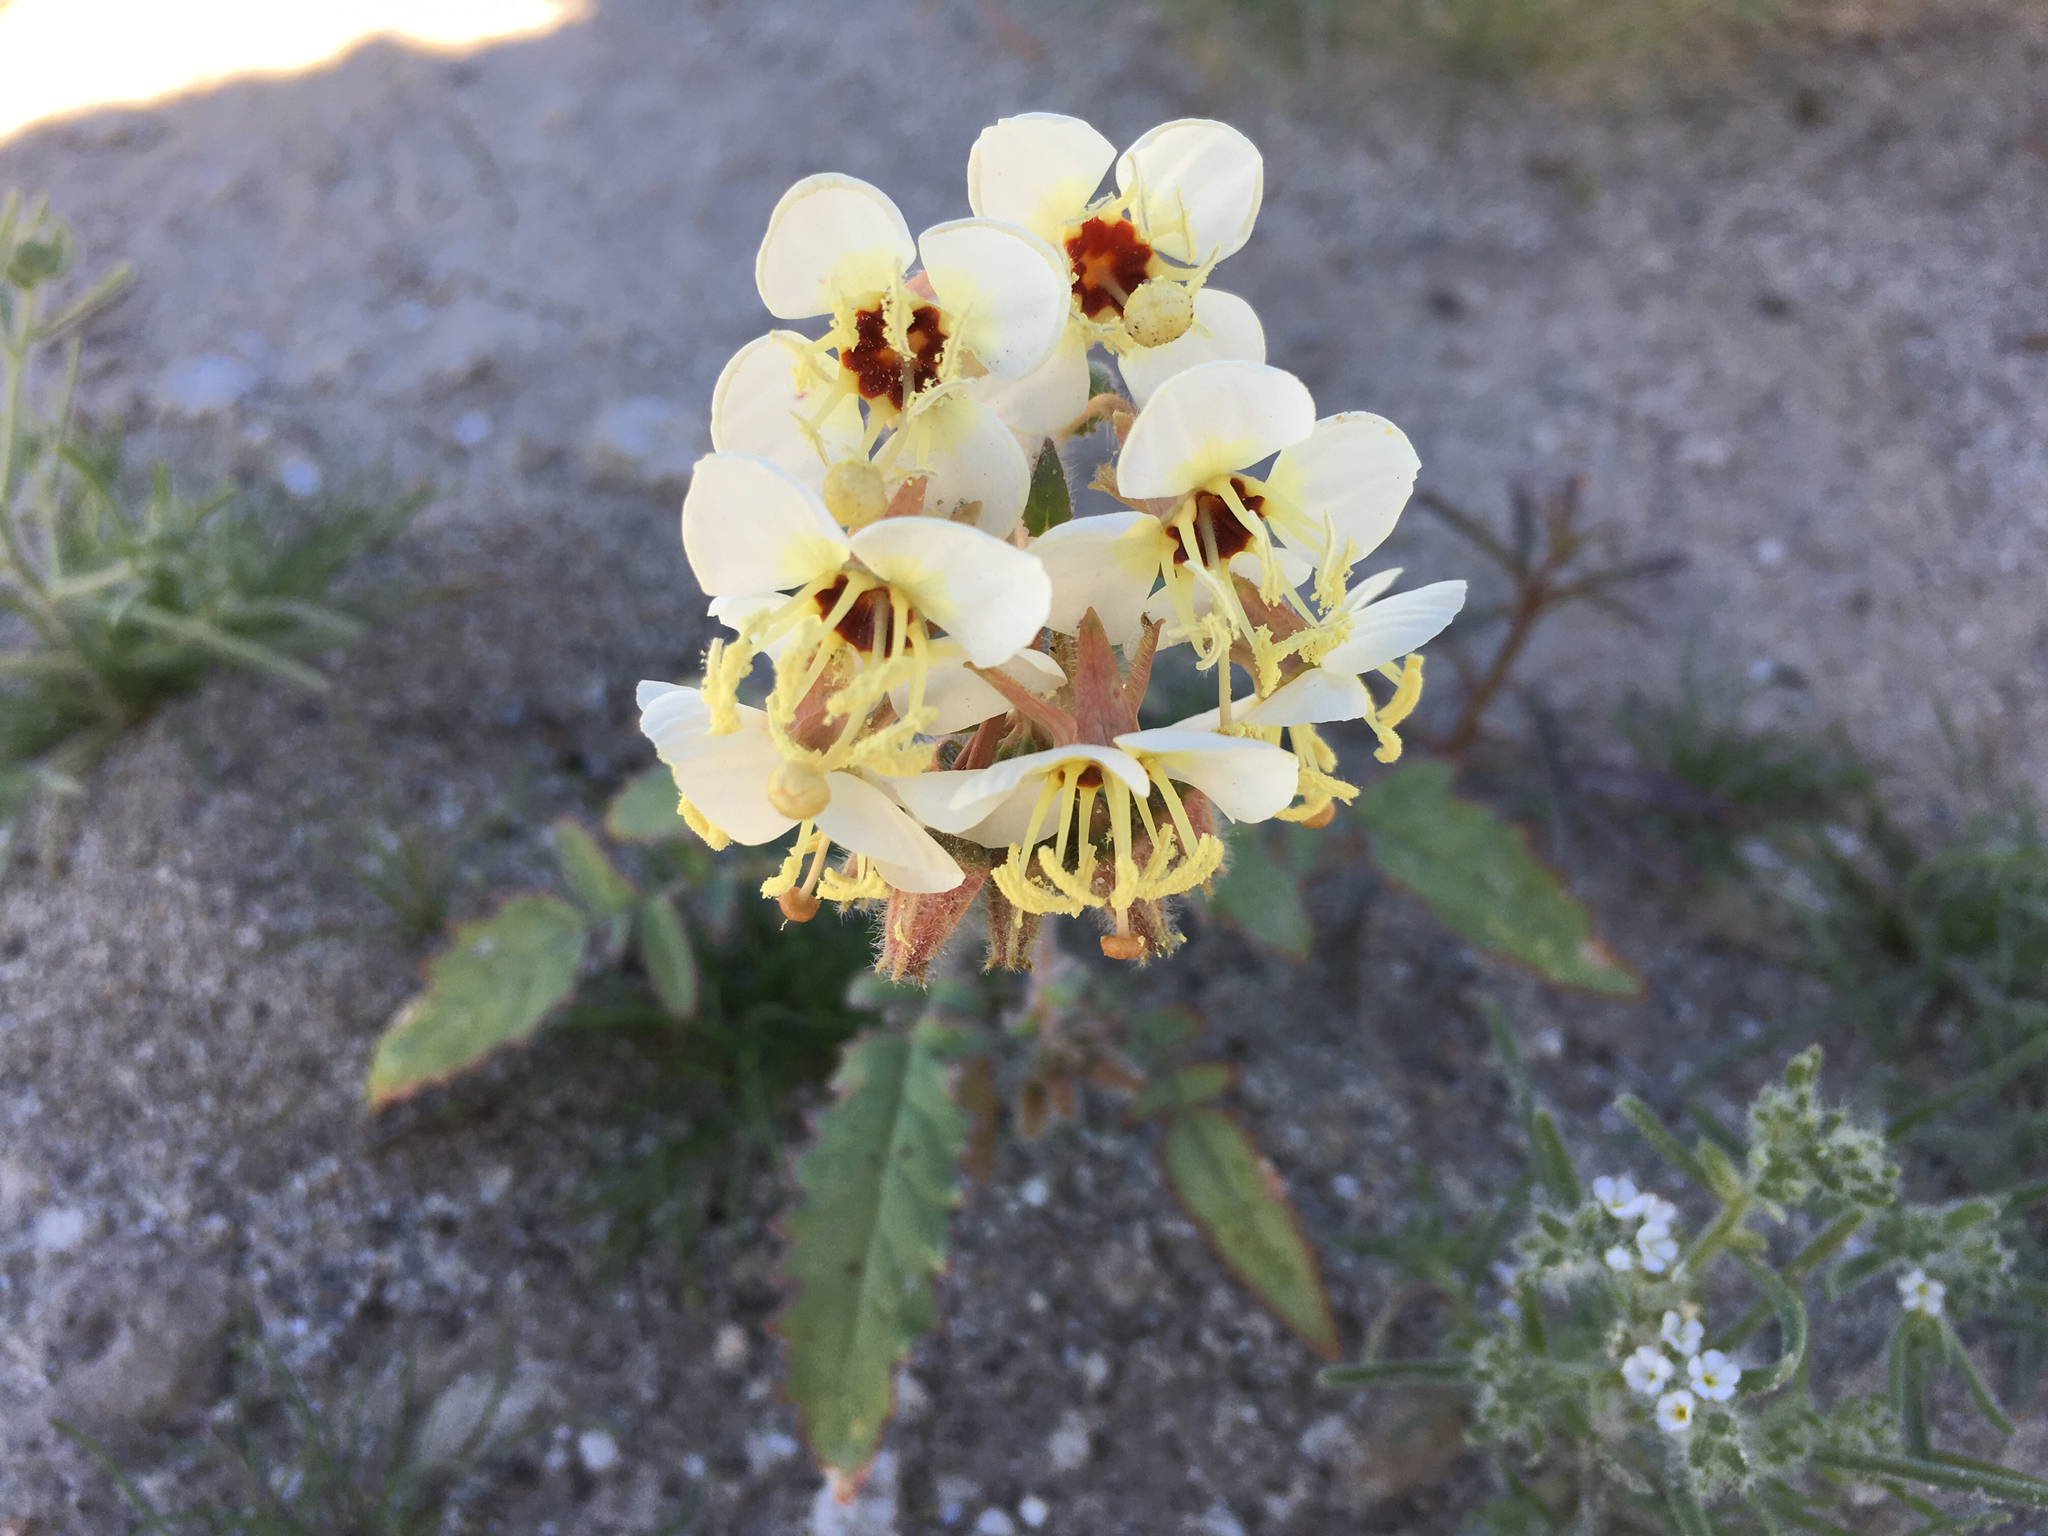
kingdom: Plantae
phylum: Tracheophyta
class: Magnoliopsida
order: Myrtales
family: Onagraceae
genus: Chylismia
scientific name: Chylismia claviformis
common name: Browneyes
